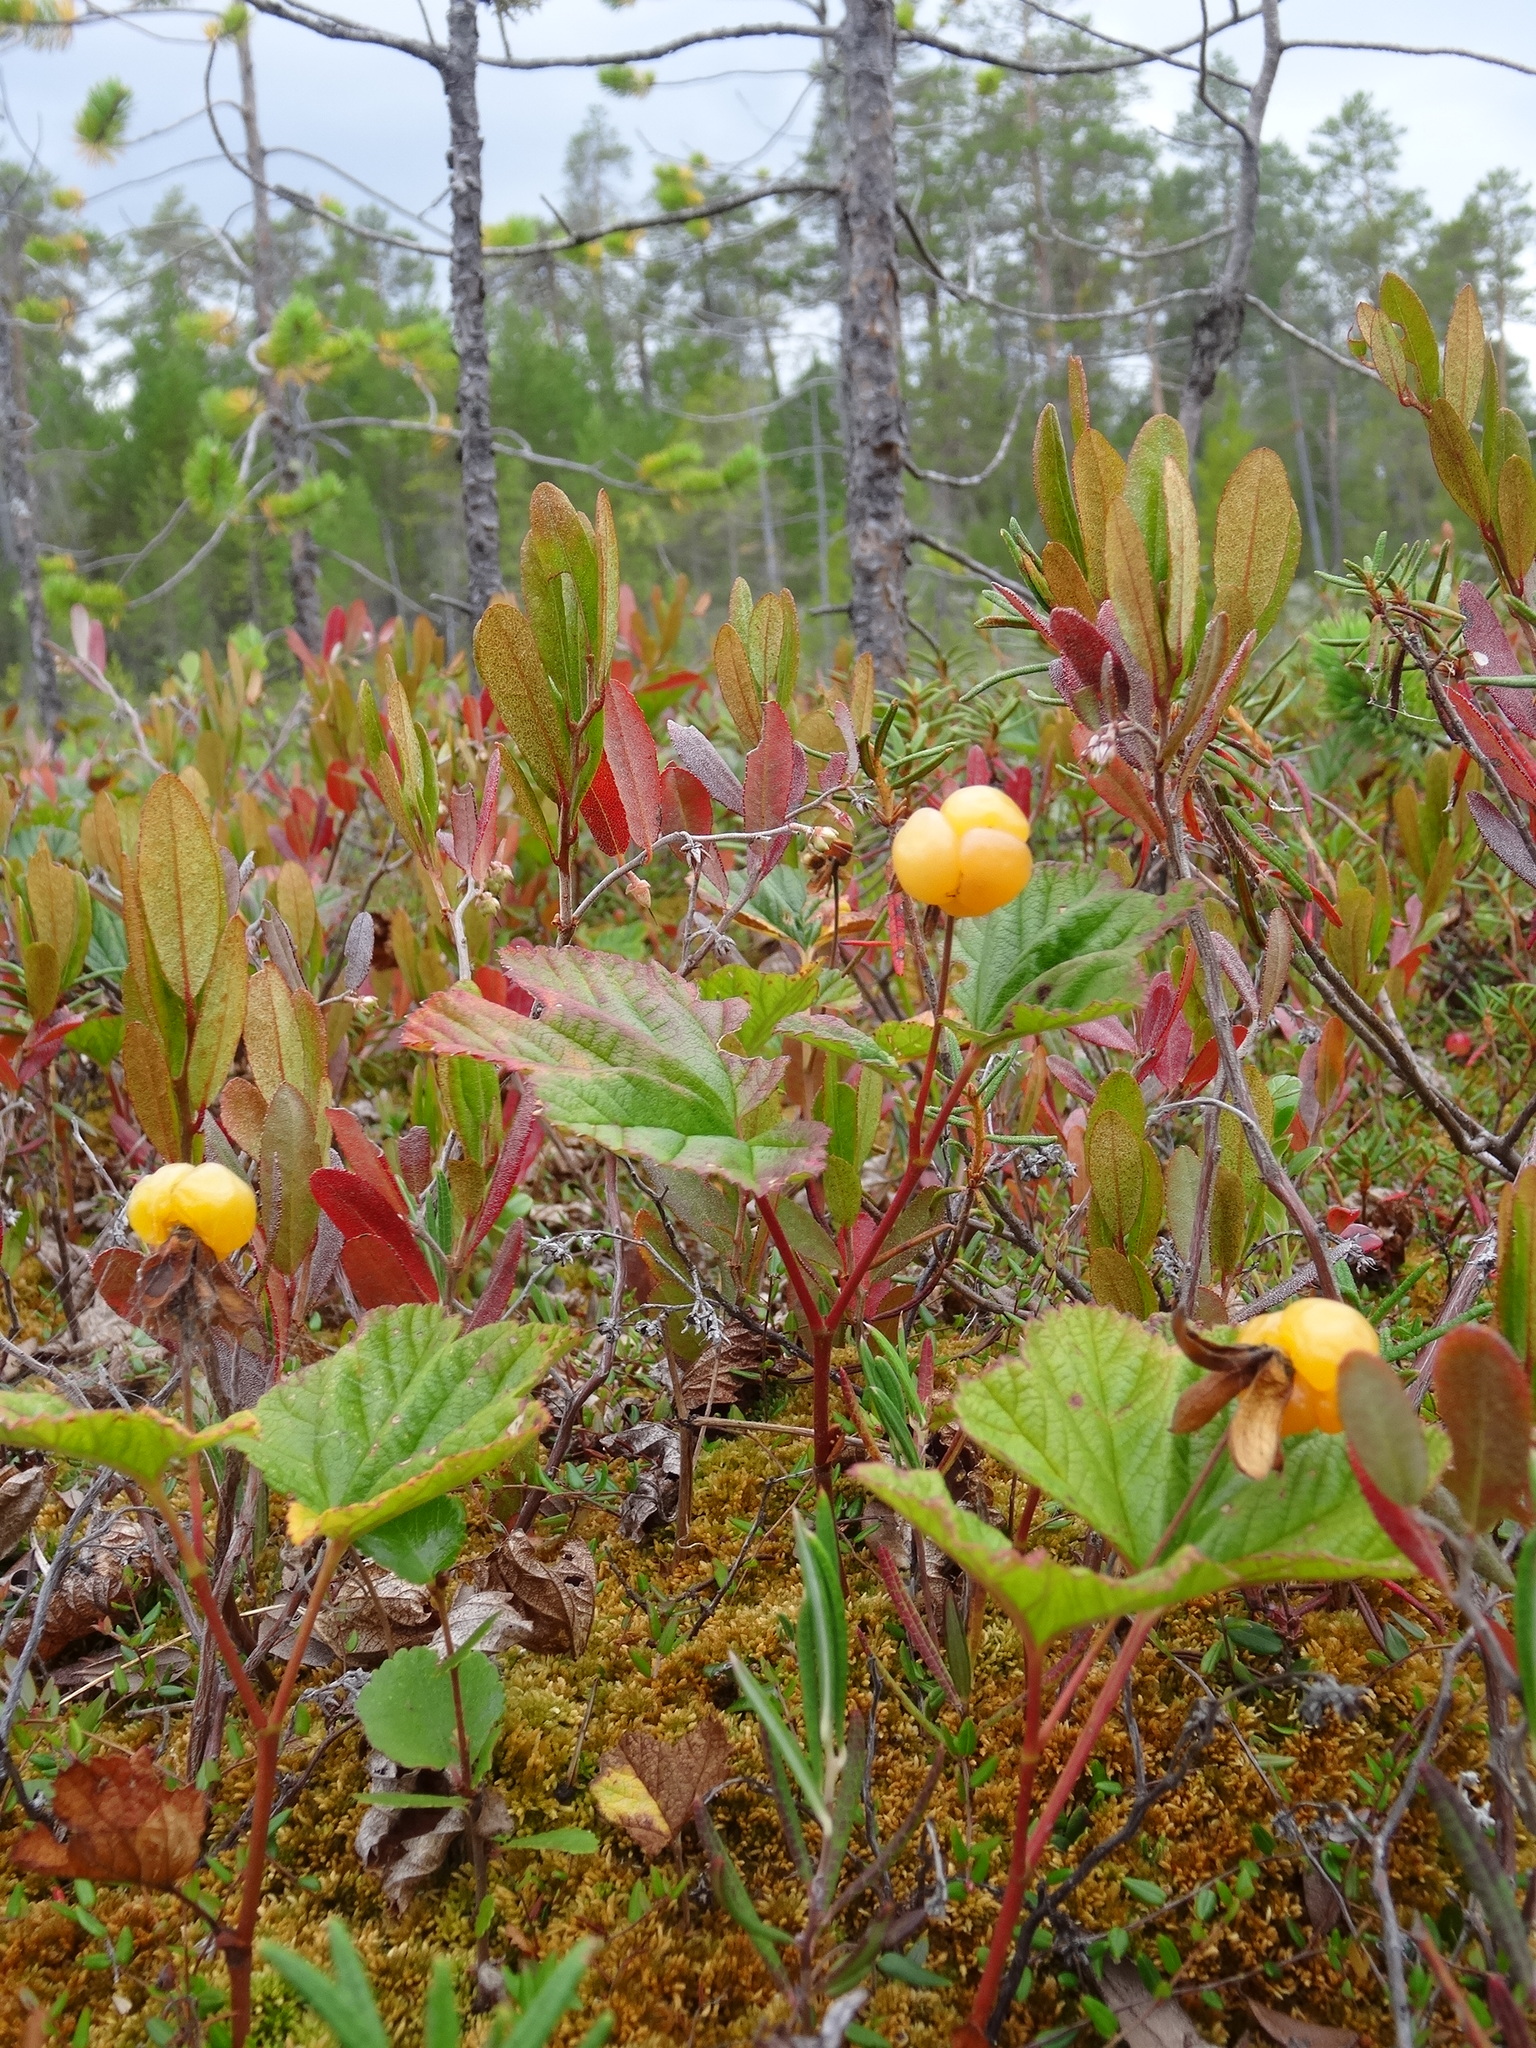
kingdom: Plantae
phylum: Tracheophyta
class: Magnoliopsida
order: Rosales
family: Rosaceae
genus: Rubus
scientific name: Rubus chamaemorus
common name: Cloudberry
